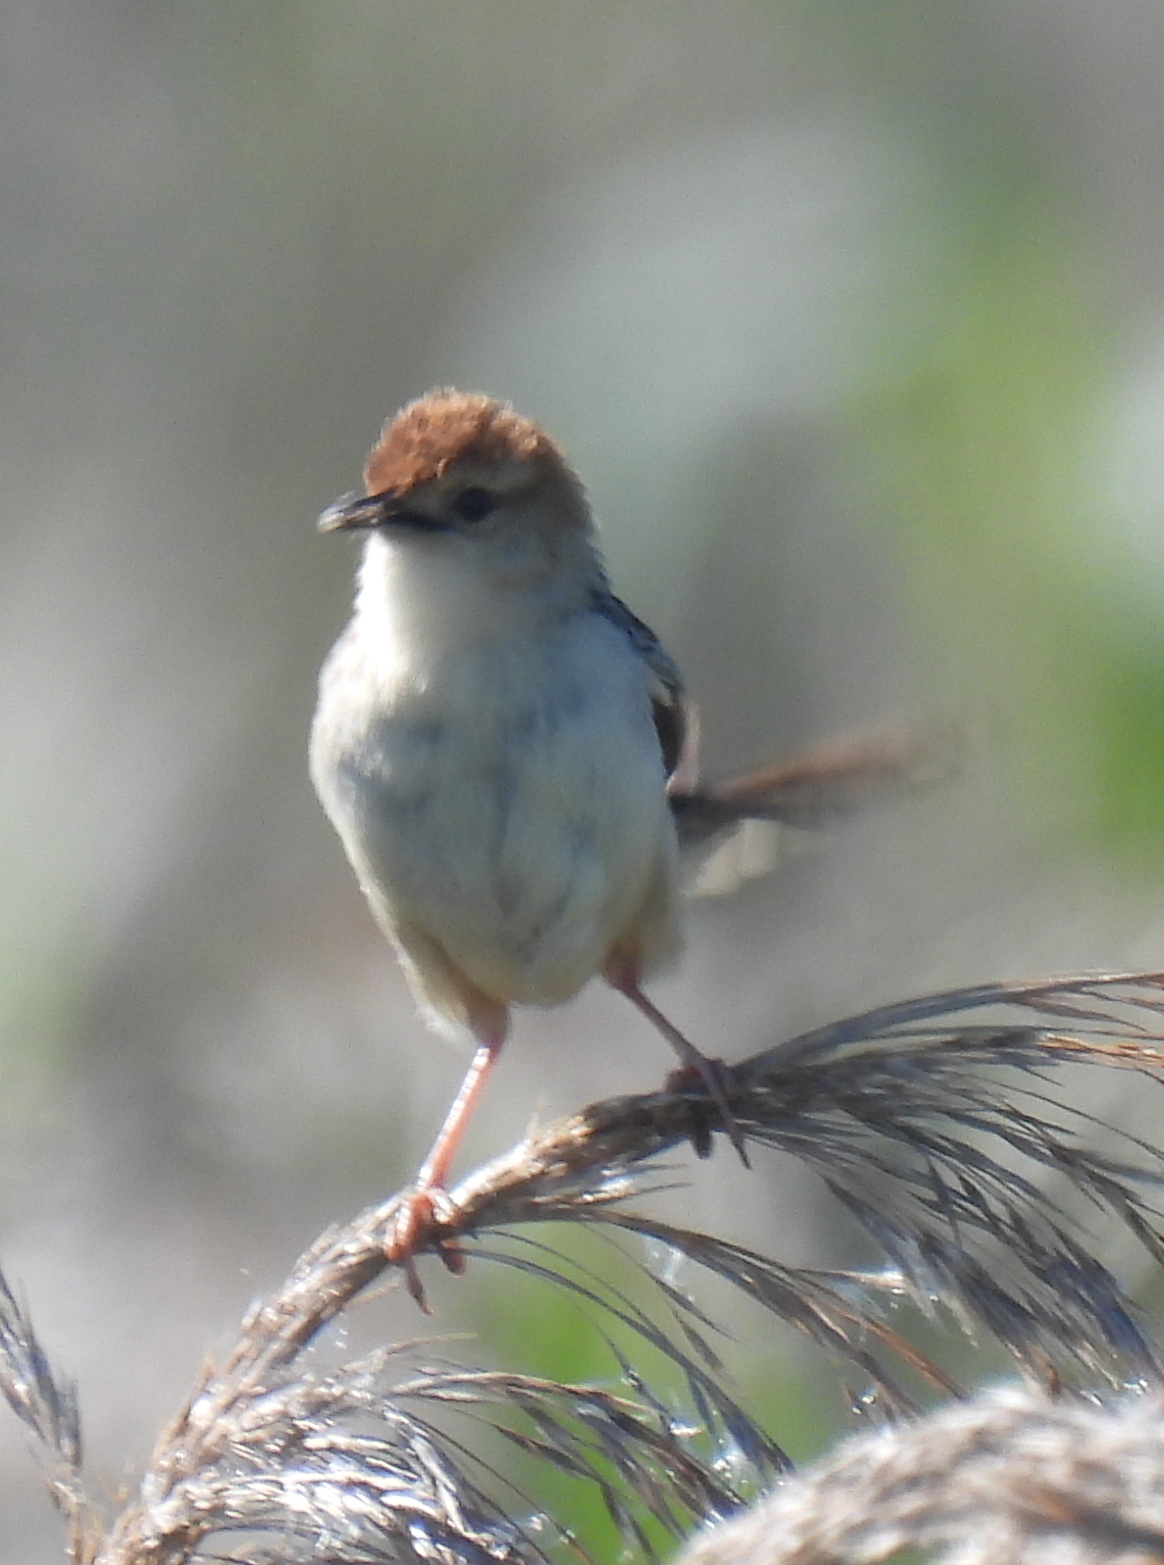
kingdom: Animalia
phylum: Chordata
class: Aves
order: Passeriformes
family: Cisticolidae
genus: Cisticola
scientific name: Cisticola tinniens
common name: Levaillant's cisticola
